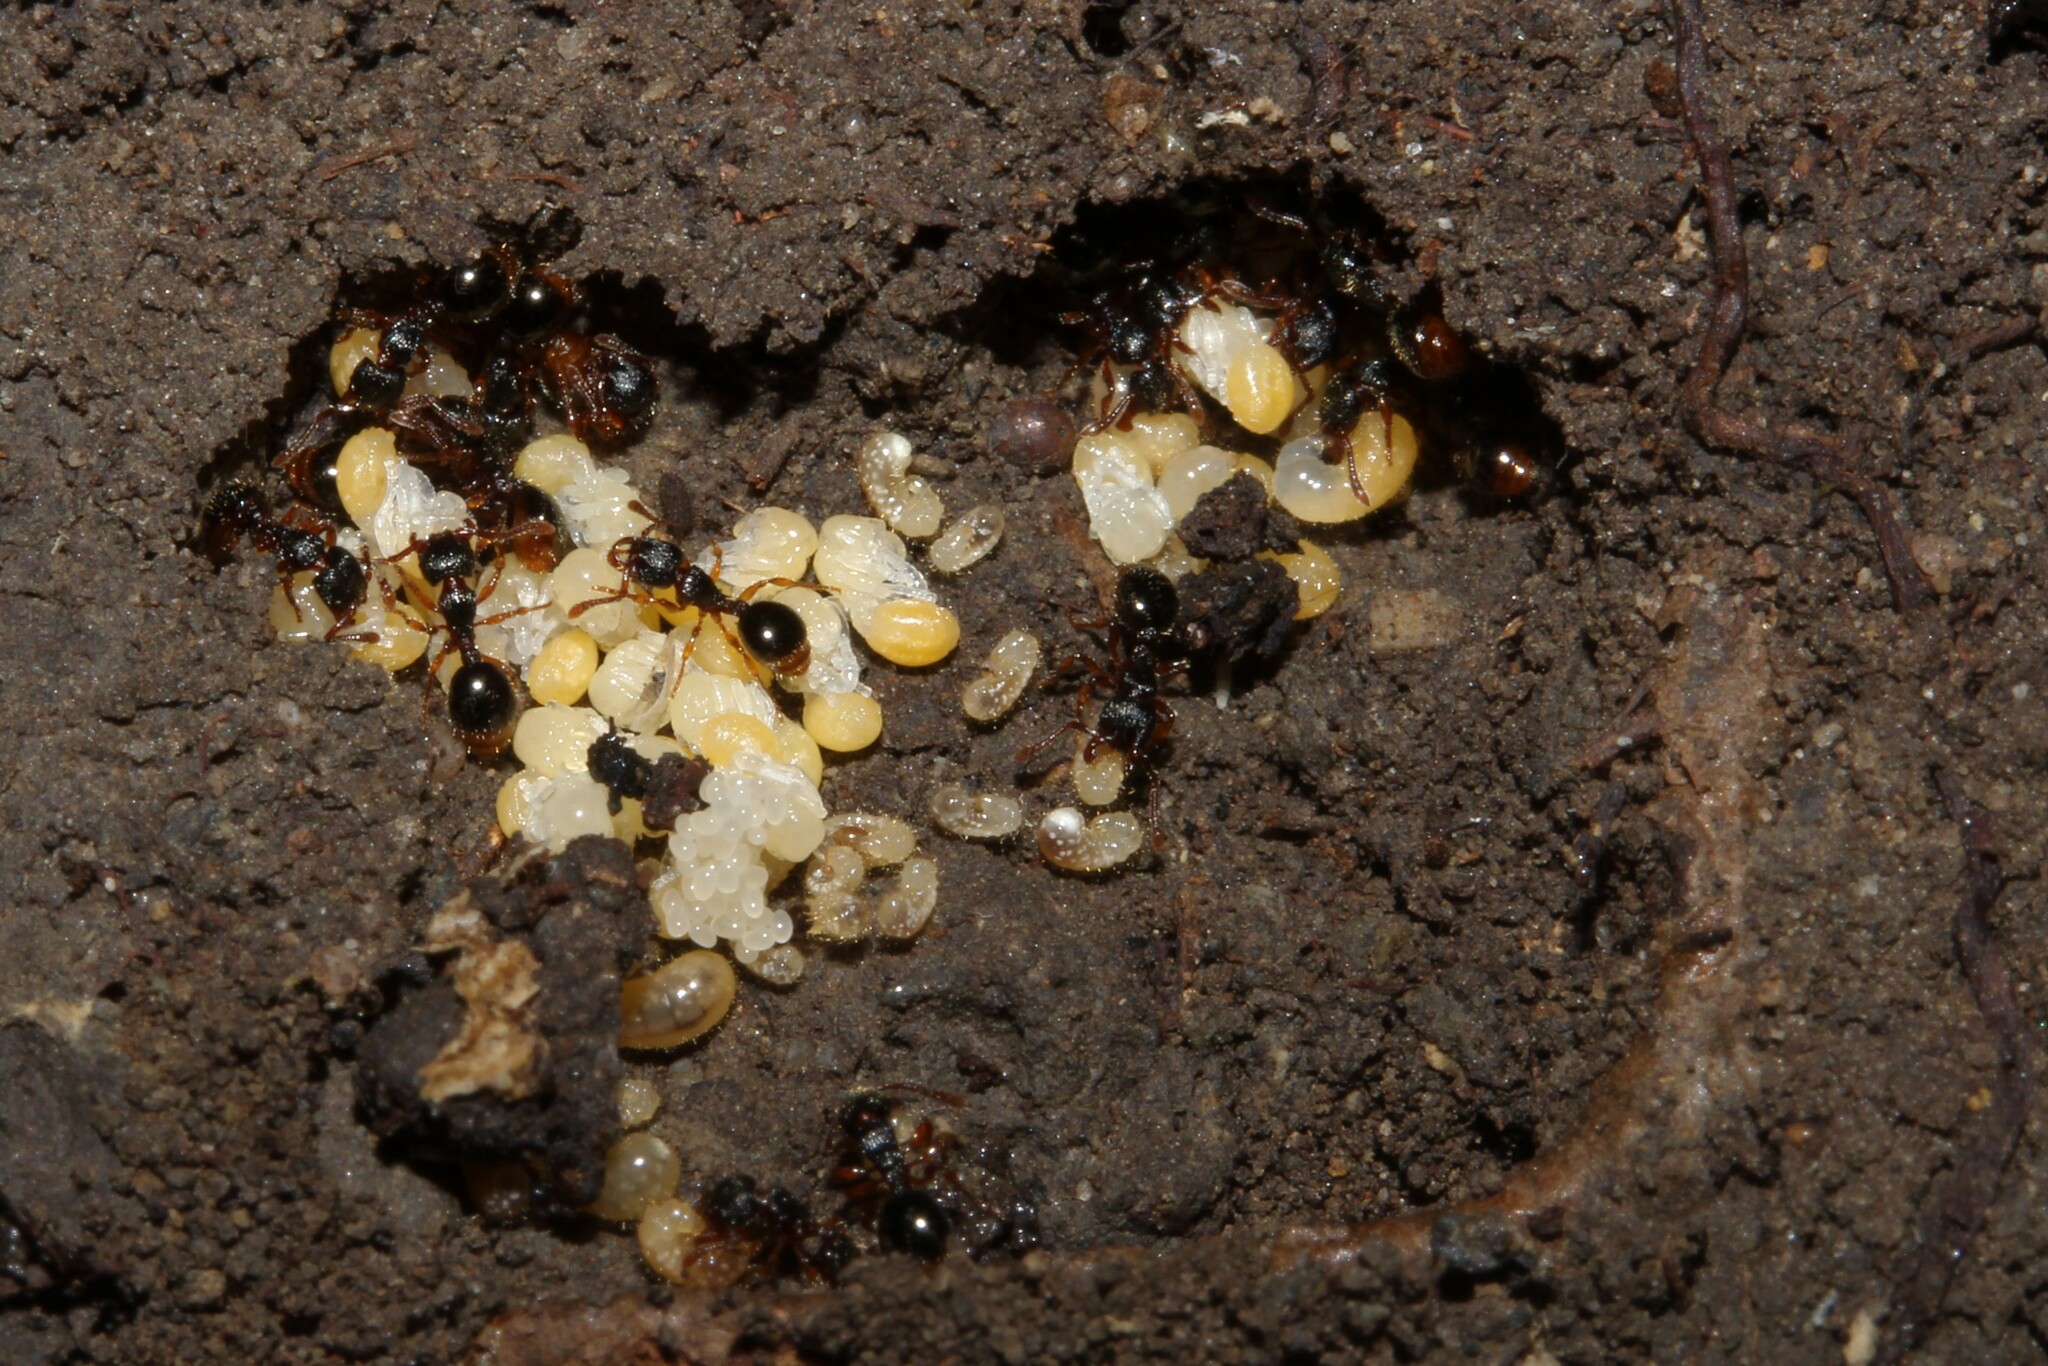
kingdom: Animalia
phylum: Arthropoda
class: Insecta
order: Hymenoptera
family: Formicidae
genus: Myrmecina
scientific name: Myrmecina graminicola
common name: Grass ant
